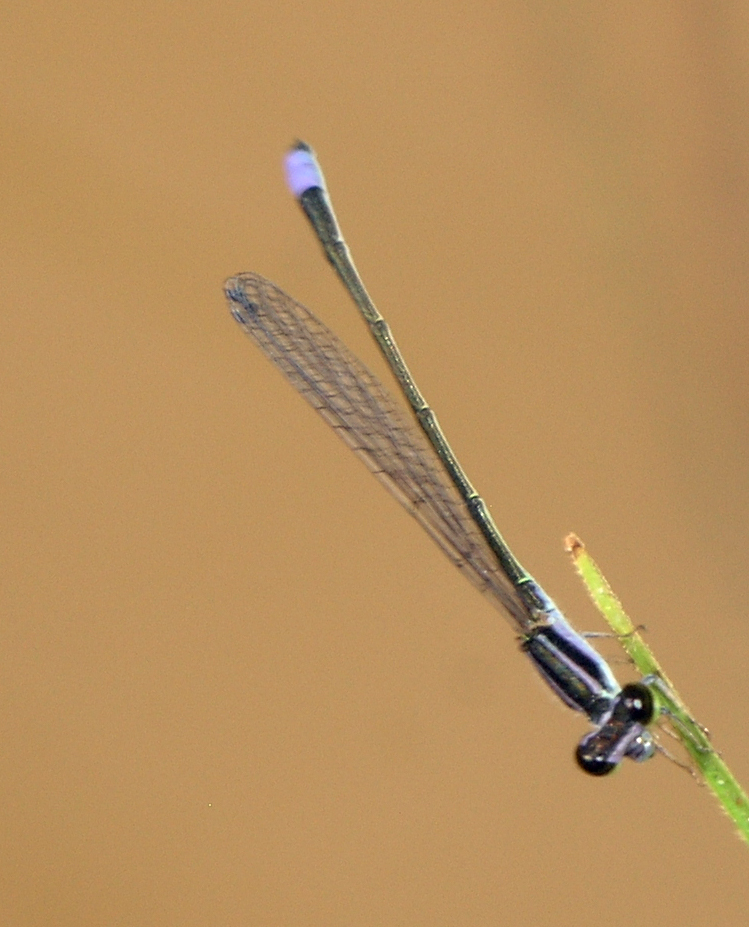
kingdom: Animalia
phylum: Arthropoda
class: Insecta
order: Odonata
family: Coenagrionidae
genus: Aciagrion
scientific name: Aciagrion approximans
